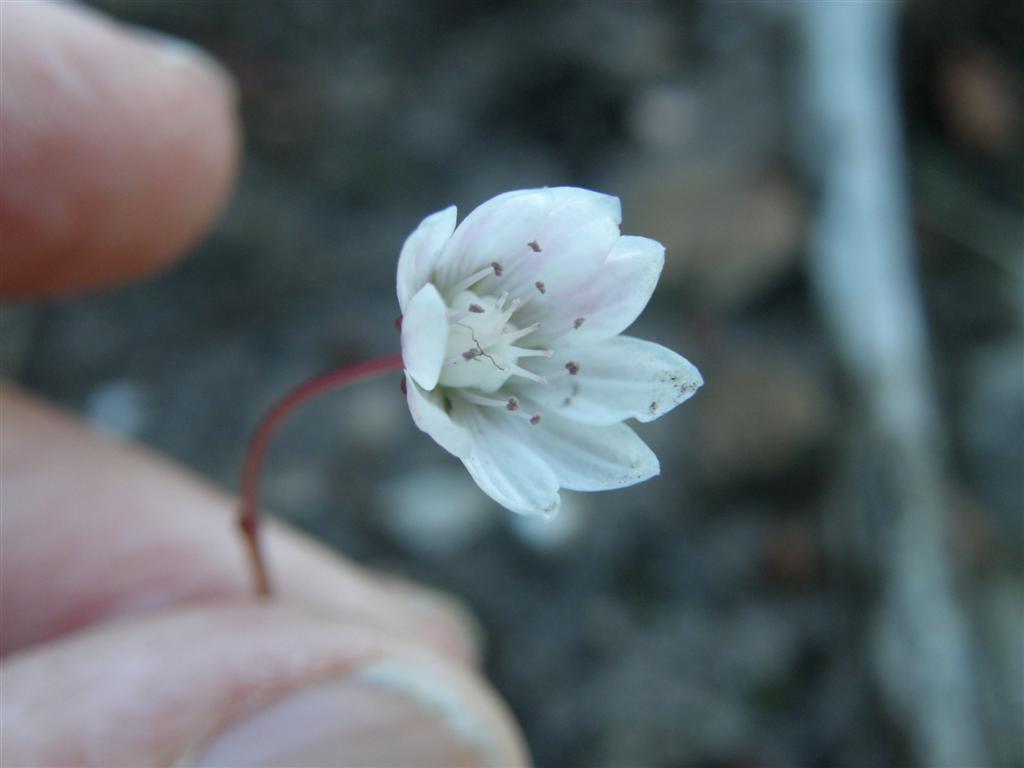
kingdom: Plantae
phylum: Tracheophyta
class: Magnoliopsida
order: Saxifragales
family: Crassulaceae
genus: Crassula
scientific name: Crassula capensis
